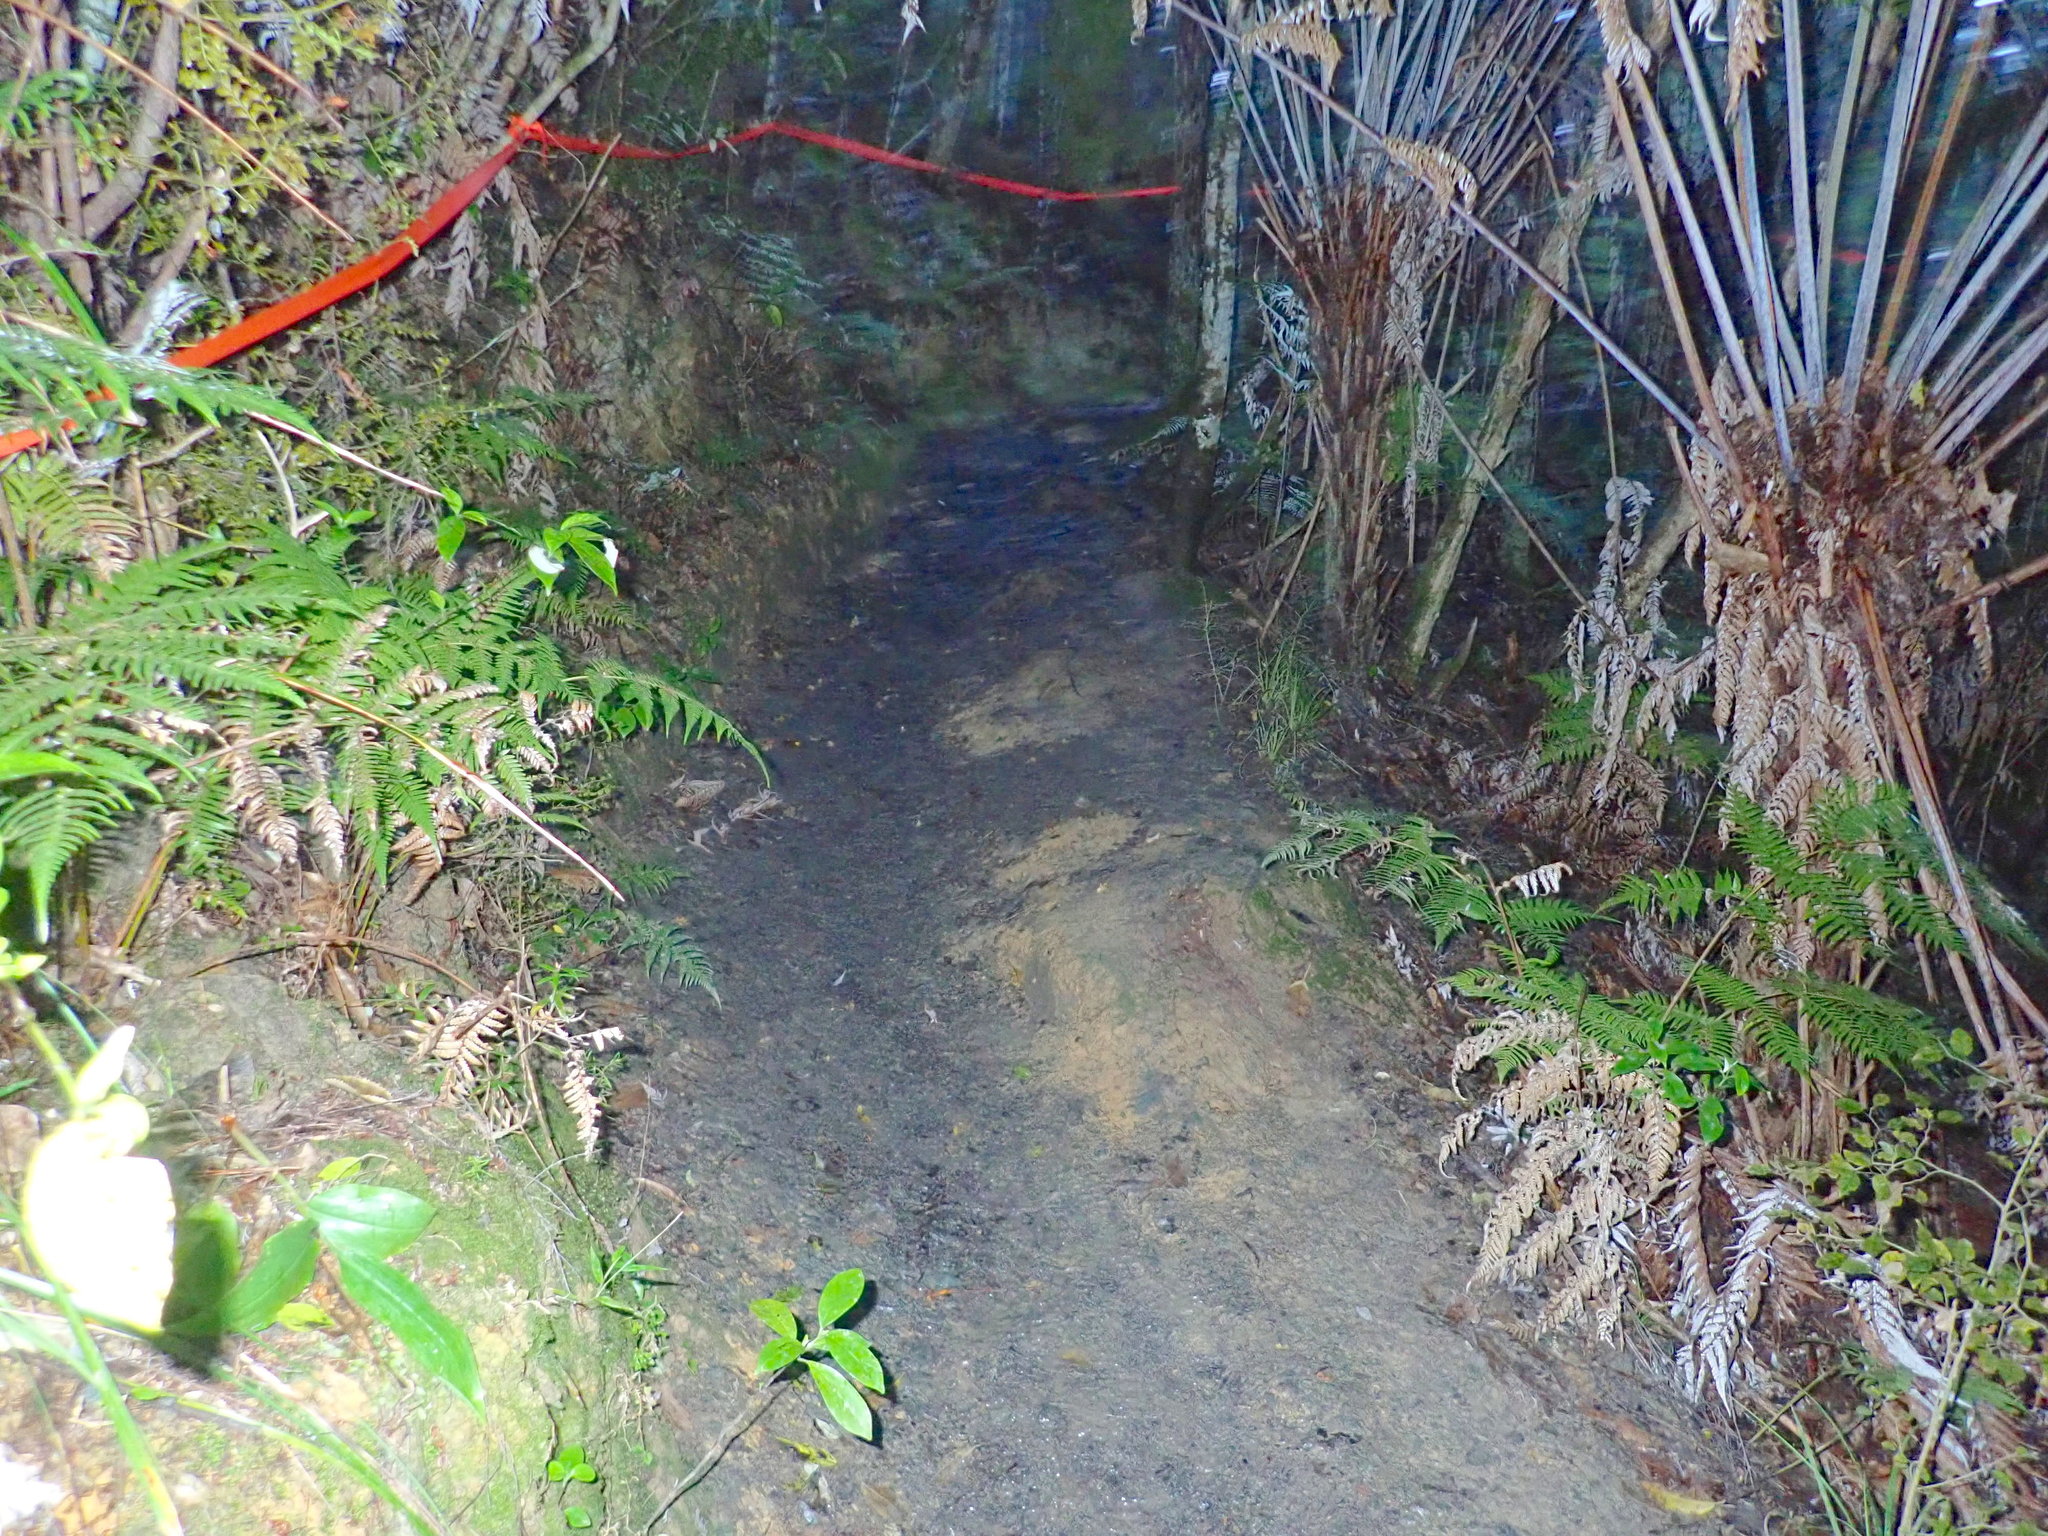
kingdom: Plantae
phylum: Tracheophyta
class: Liliopsida
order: Zingiberales
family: Zingiberaceae
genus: Hedychium
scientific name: Hedychium gardnerianum
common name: Himalayan ginger
